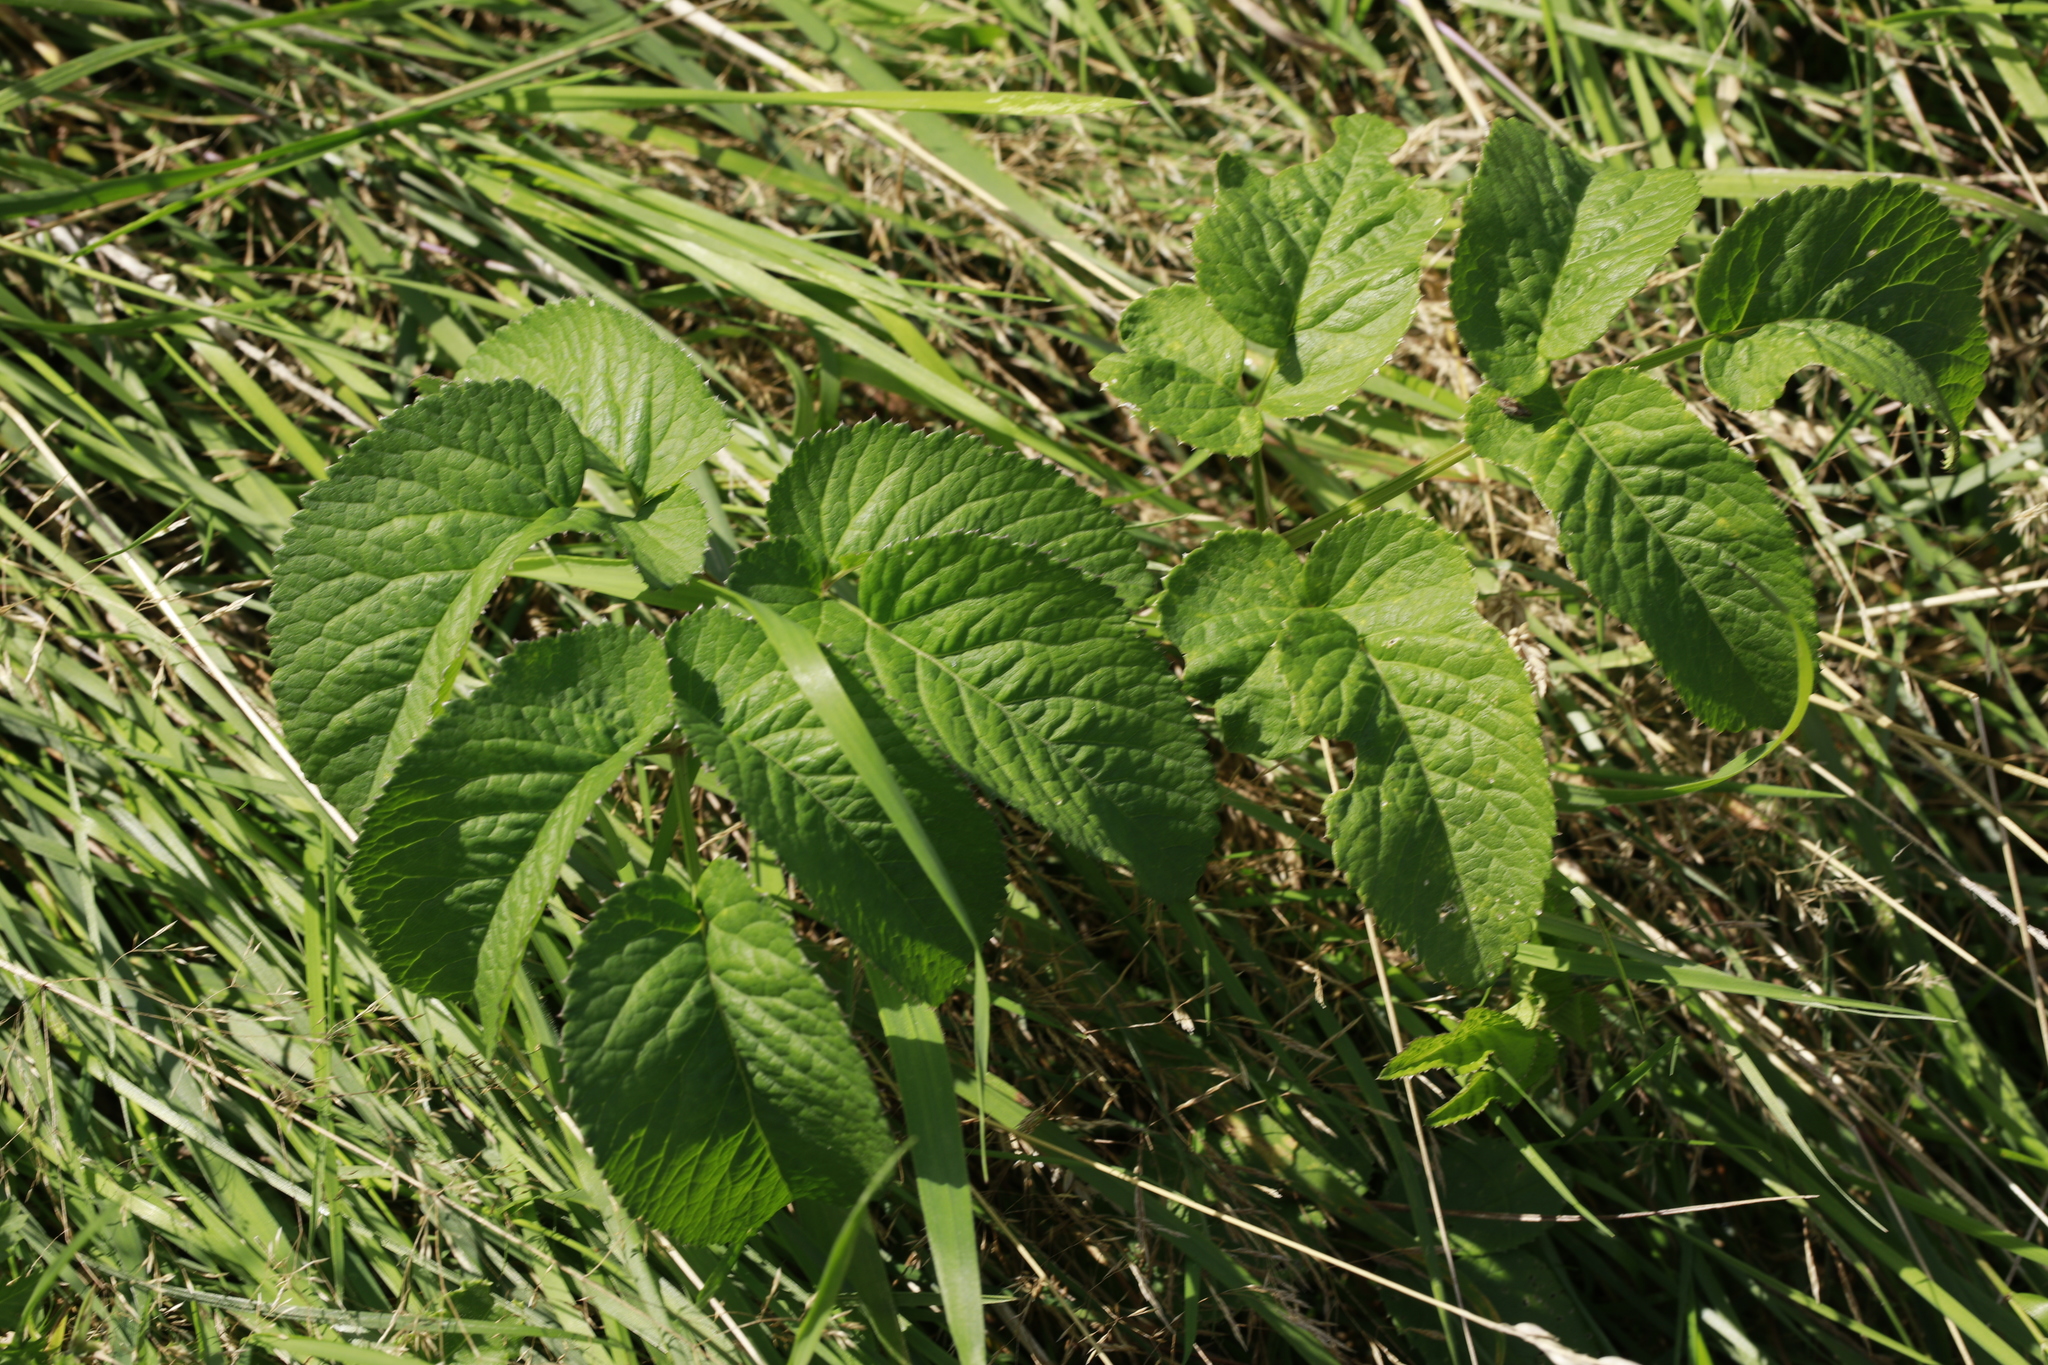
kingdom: Plantae
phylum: Tracheophyta
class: Magnoliopsida
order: Apiales
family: Apiaceae
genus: Angelica
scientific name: Angelica sylvestris
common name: Wild angelica
